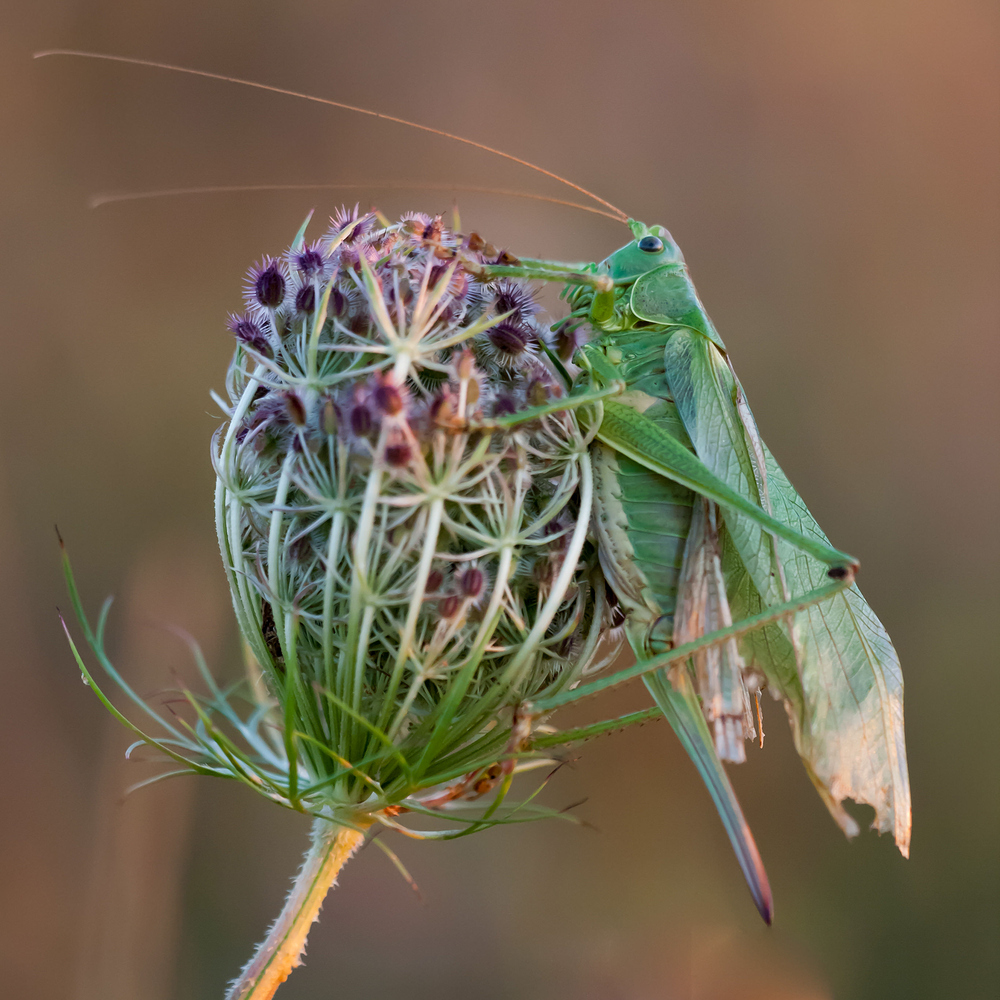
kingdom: Animalia
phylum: Arthropoda
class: Insecta
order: Orthoptera
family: Tettigoniidae
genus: Tettigonia
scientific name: Tettigonia viridissima
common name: Great green bush-cricket
